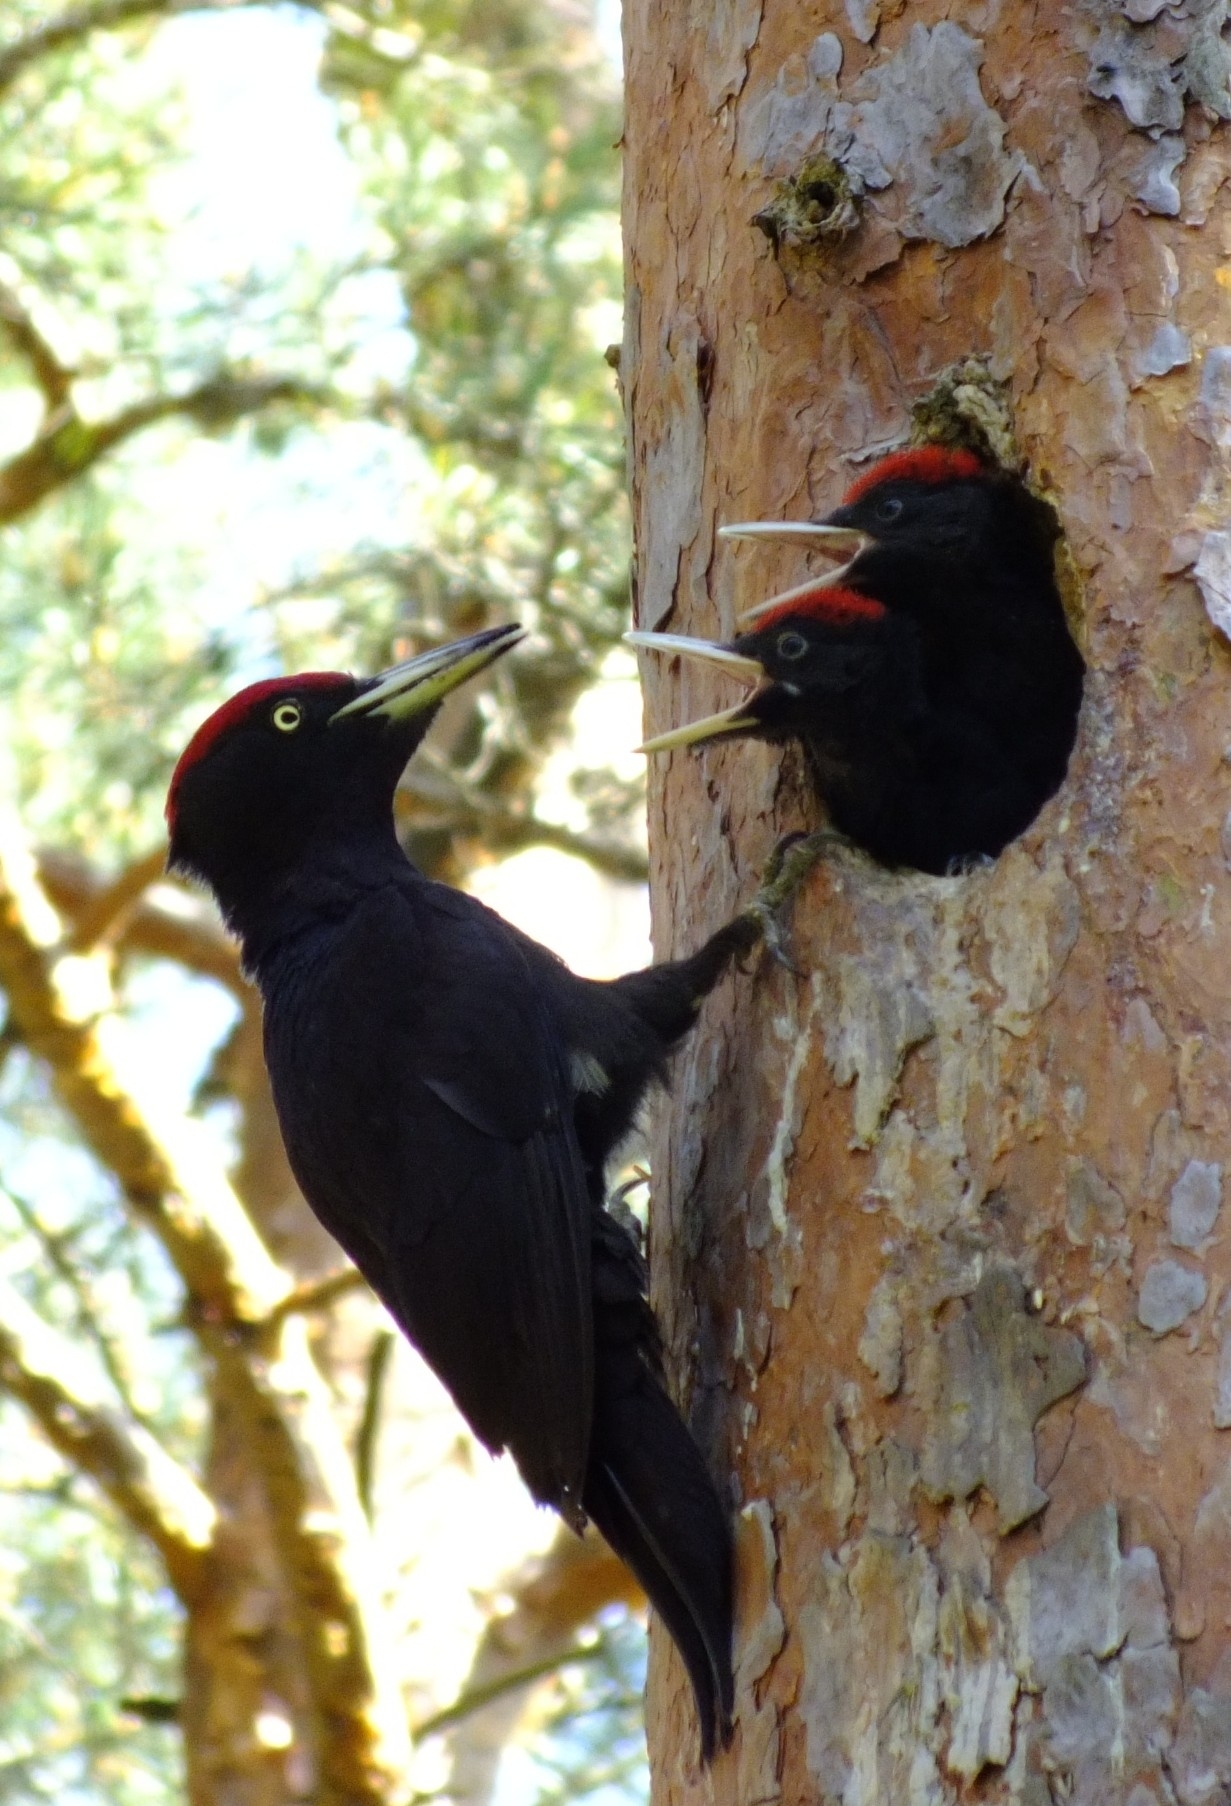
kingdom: Animalia
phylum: Chordata
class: Aves
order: Piciformes
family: Picidae
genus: Dryocopus
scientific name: Dryocopus martius
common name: Black woodpecker
